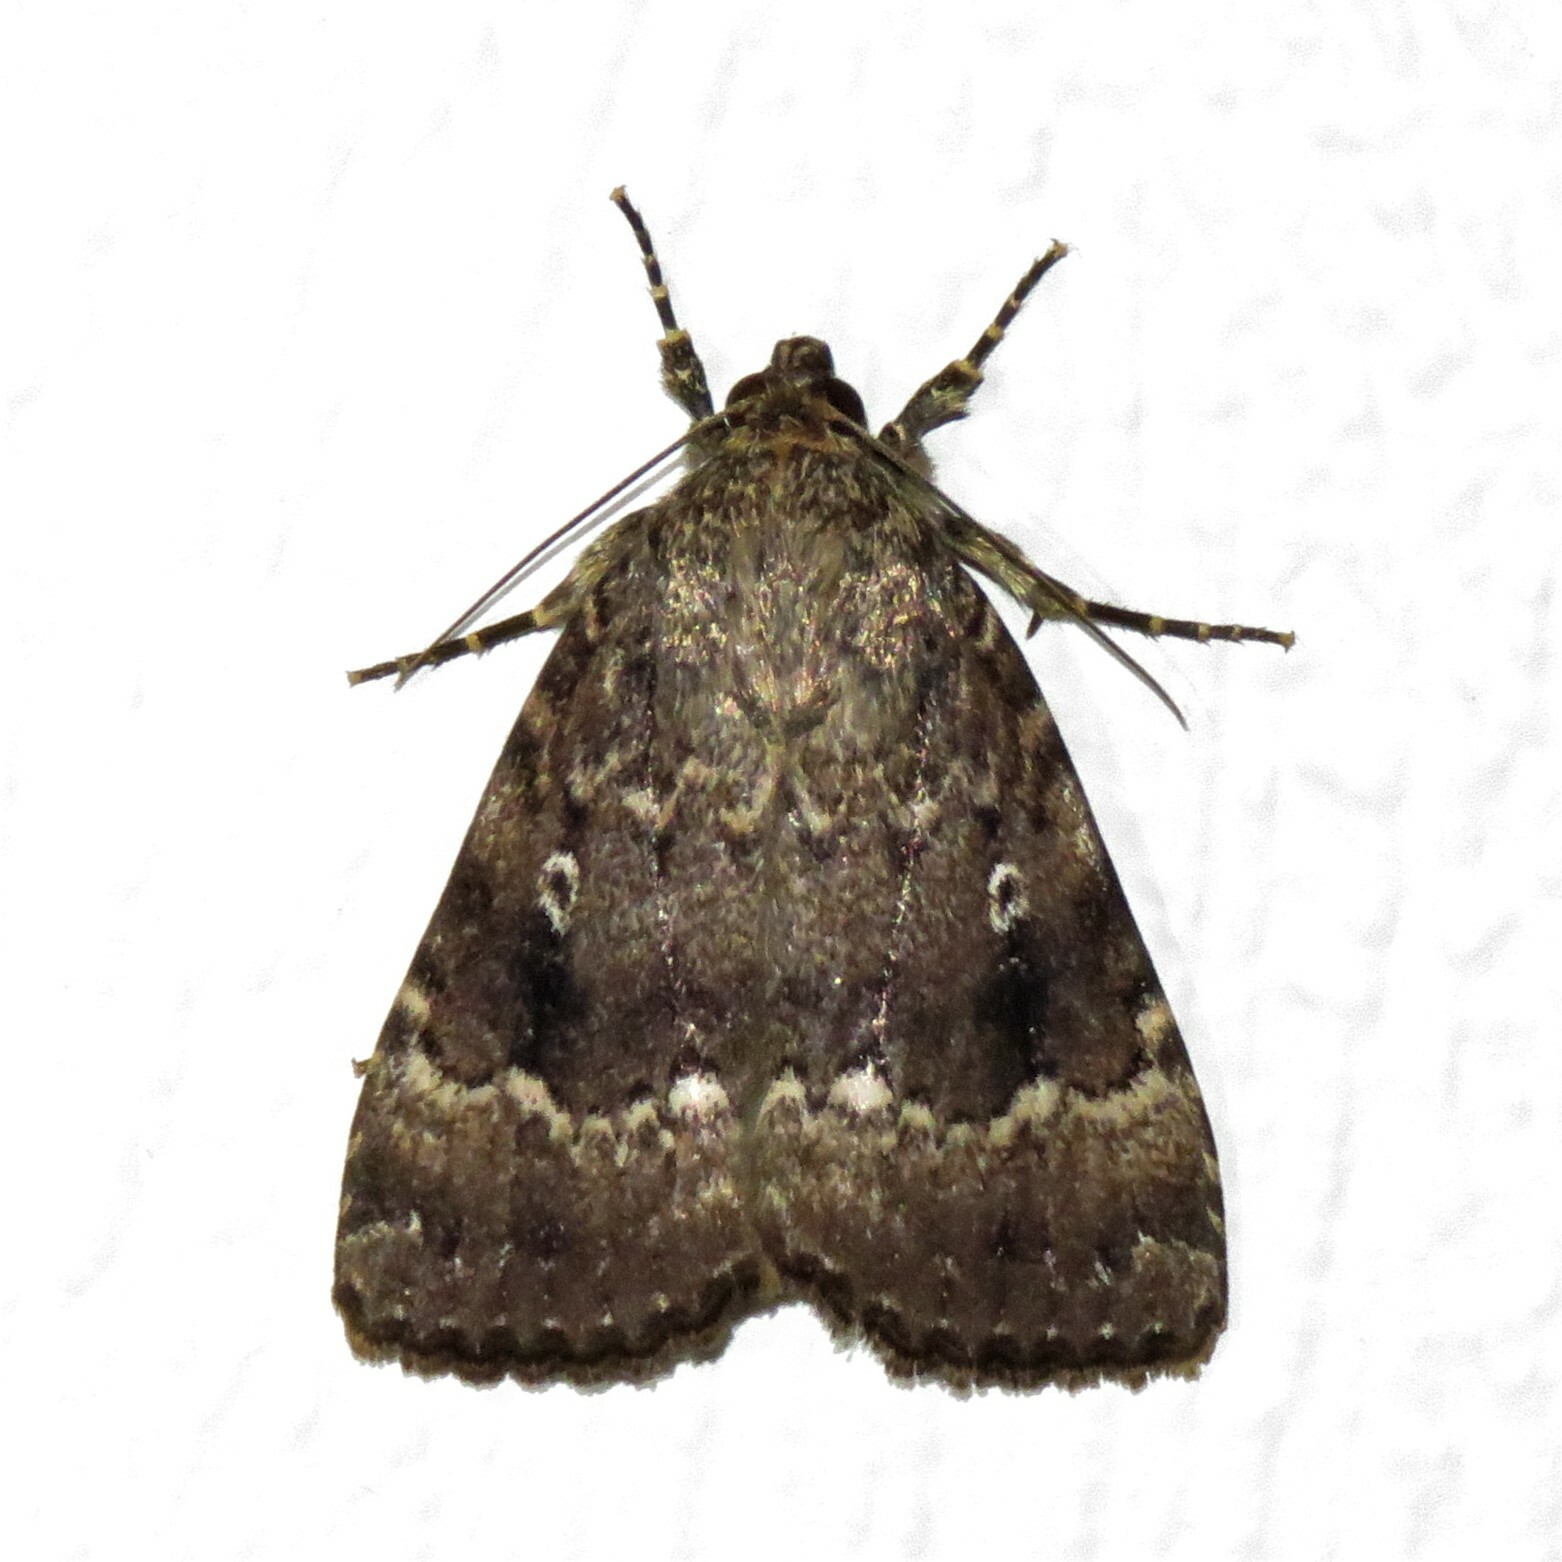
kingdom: Animalia
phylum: Arthropoda
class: Insecta
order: Lepidoptera
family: Noctuidae
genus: Amphipyra
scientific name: Amphipyra pyramidea
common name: Copper underwing
